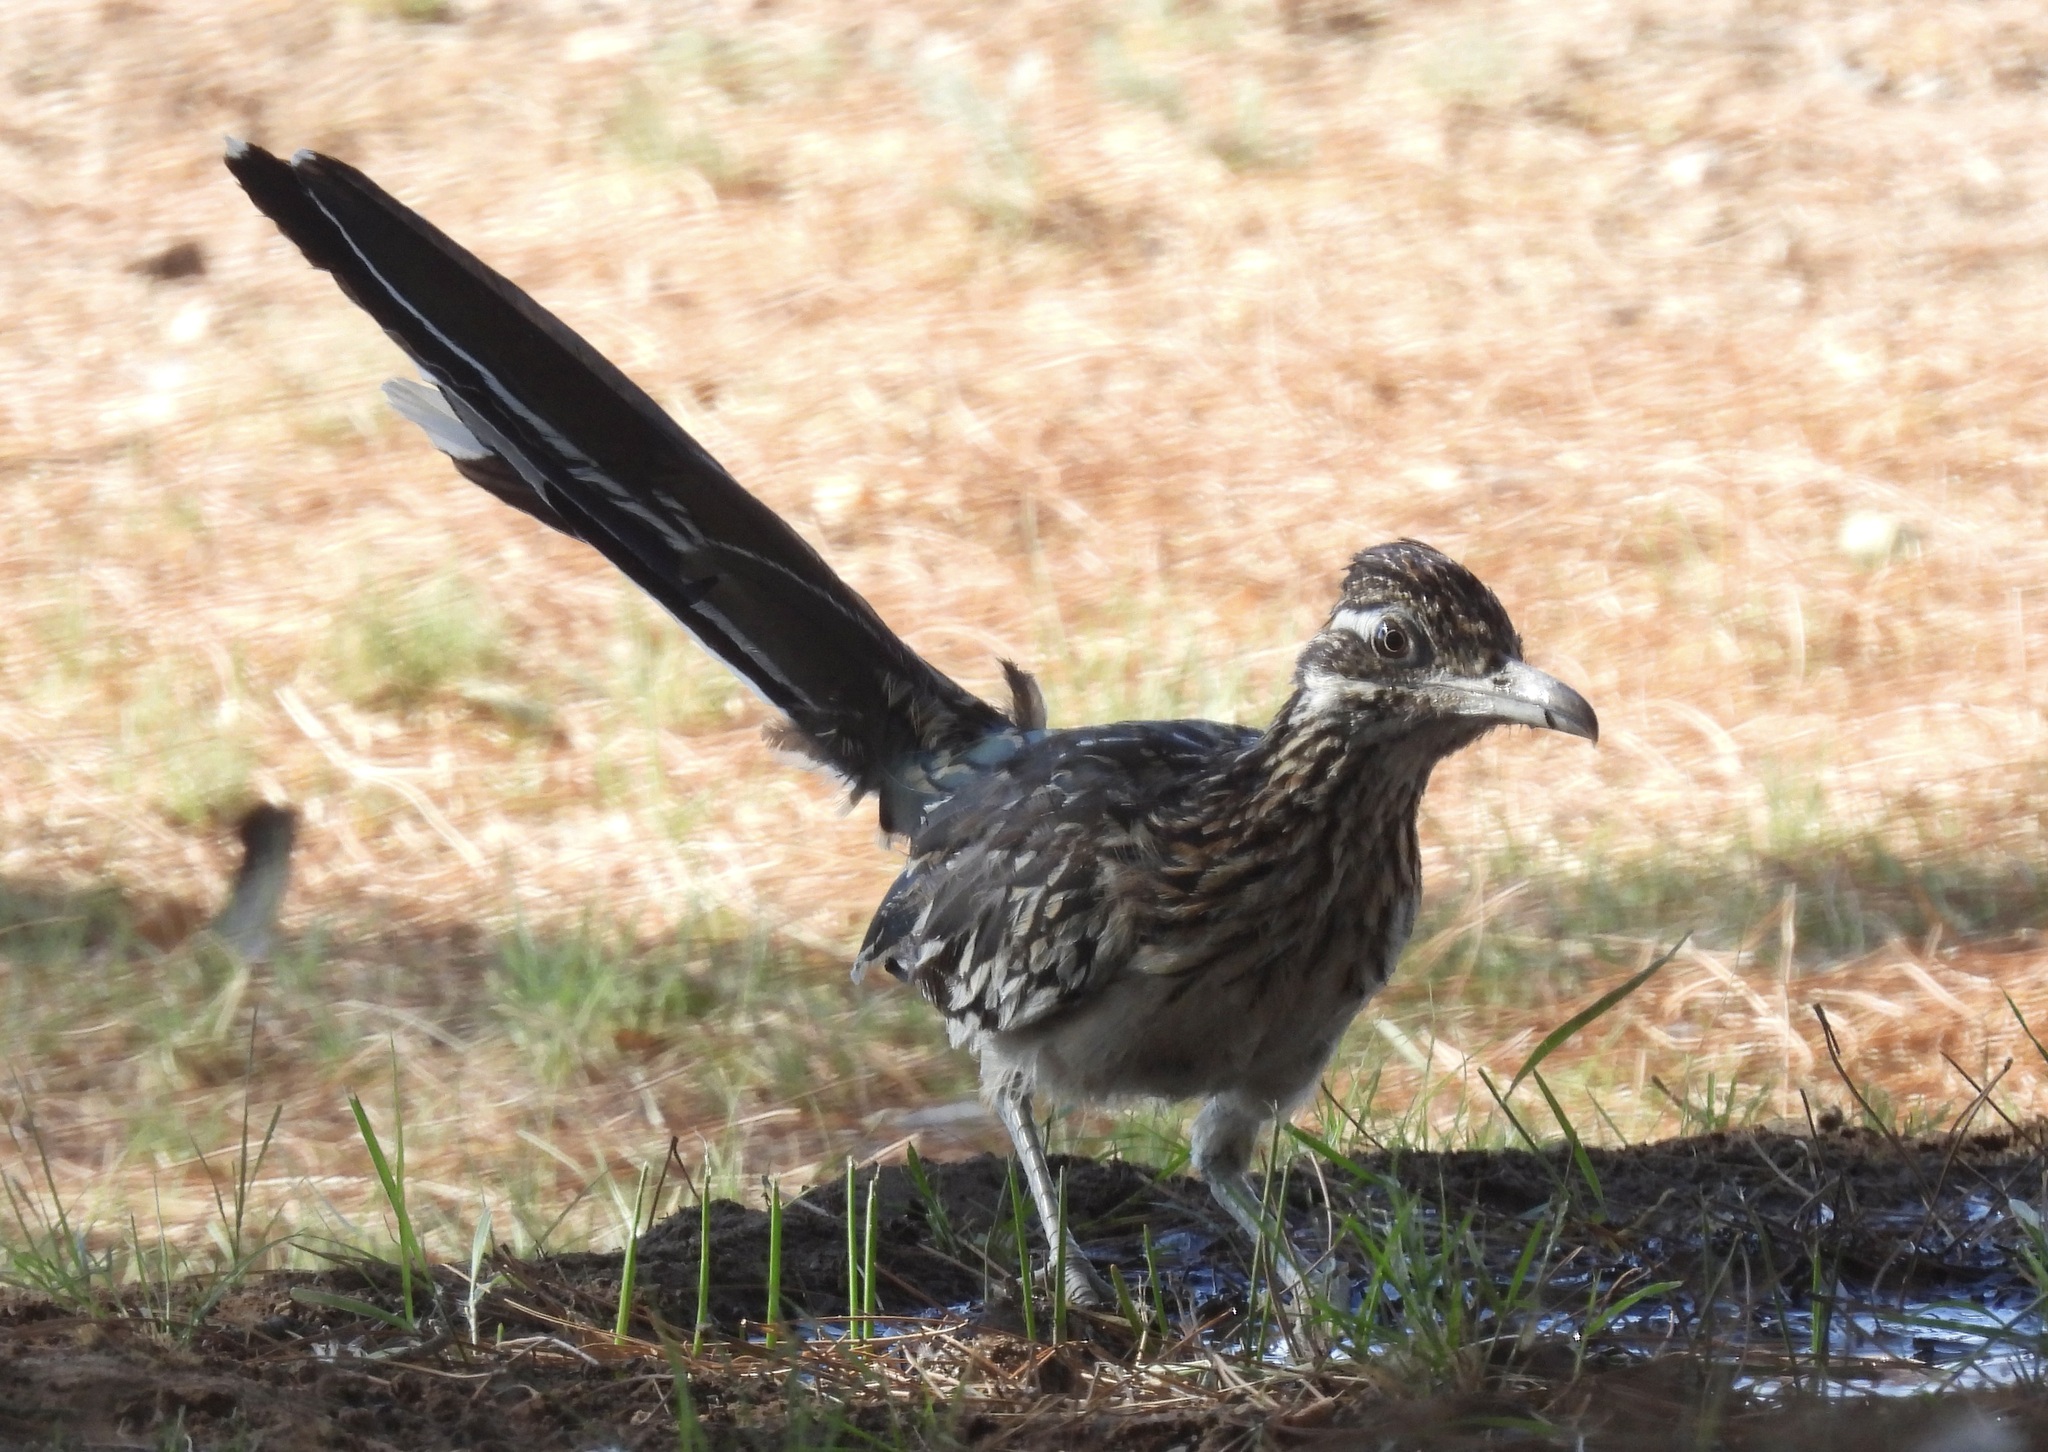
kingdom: Animalia
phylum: Chordata
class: Aves
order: Cuculiformes
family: Cuculidae
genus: Geococcyx
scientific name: Geococcyx californianus
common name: Greater roadrunner
